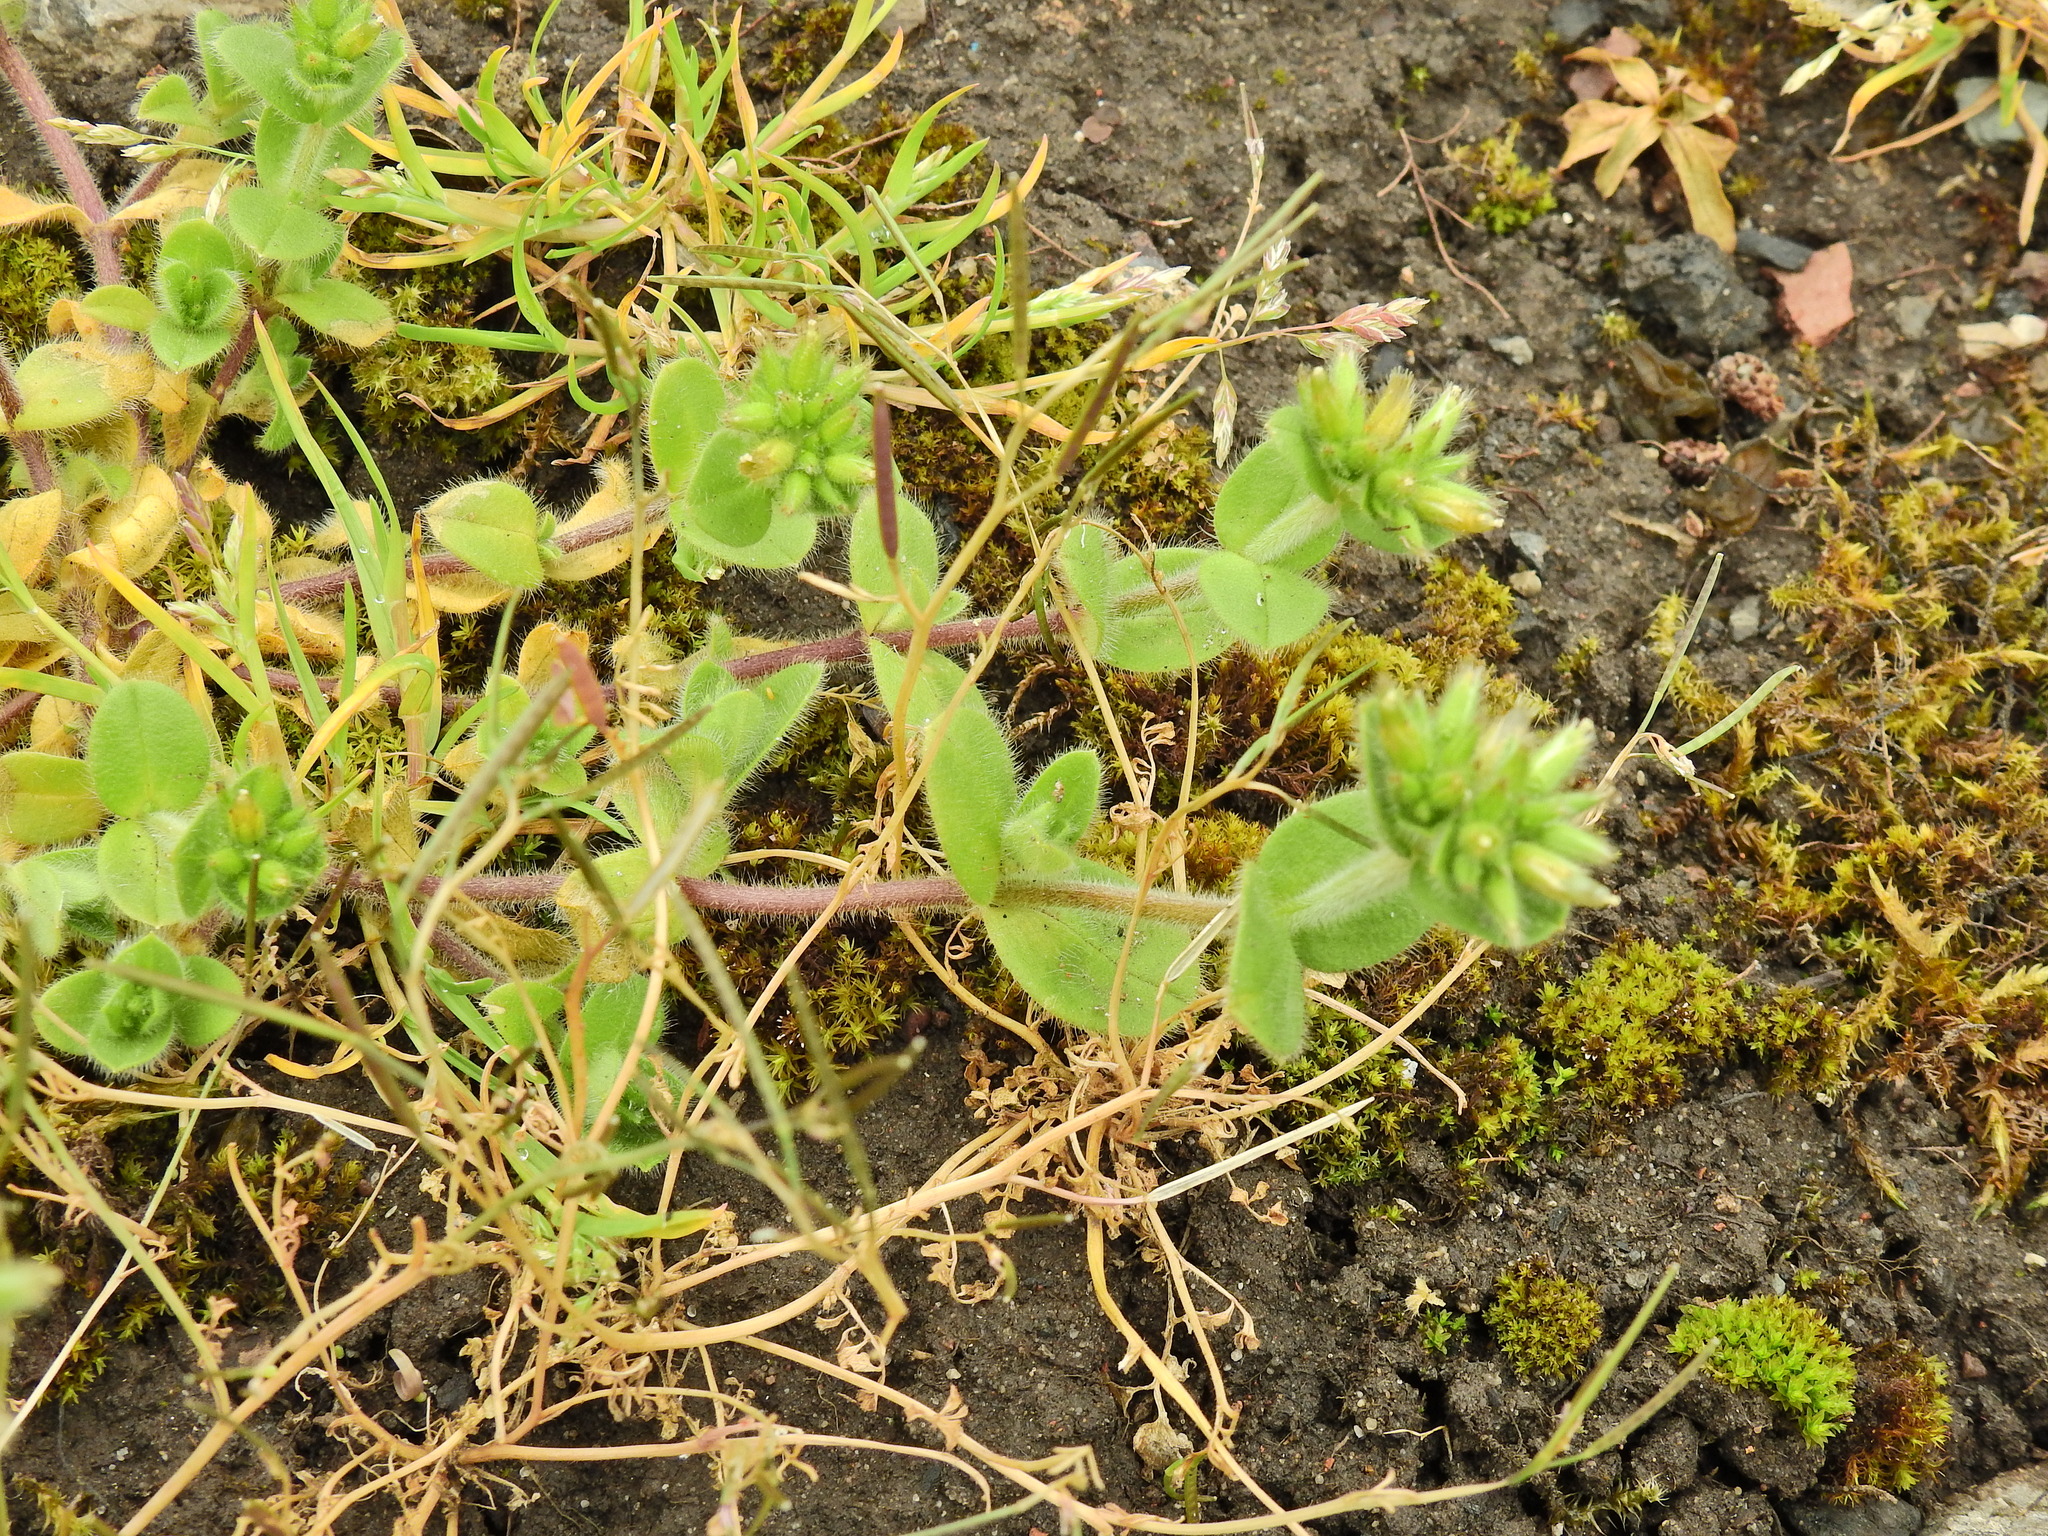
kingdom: Plantae
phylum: Tracheophyta
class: Magnoliopsida
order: Caryophyllales
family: Caryophyllaceae
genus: Cerastium
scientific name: Cerastium glomeratum
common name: Sticky chickweed
